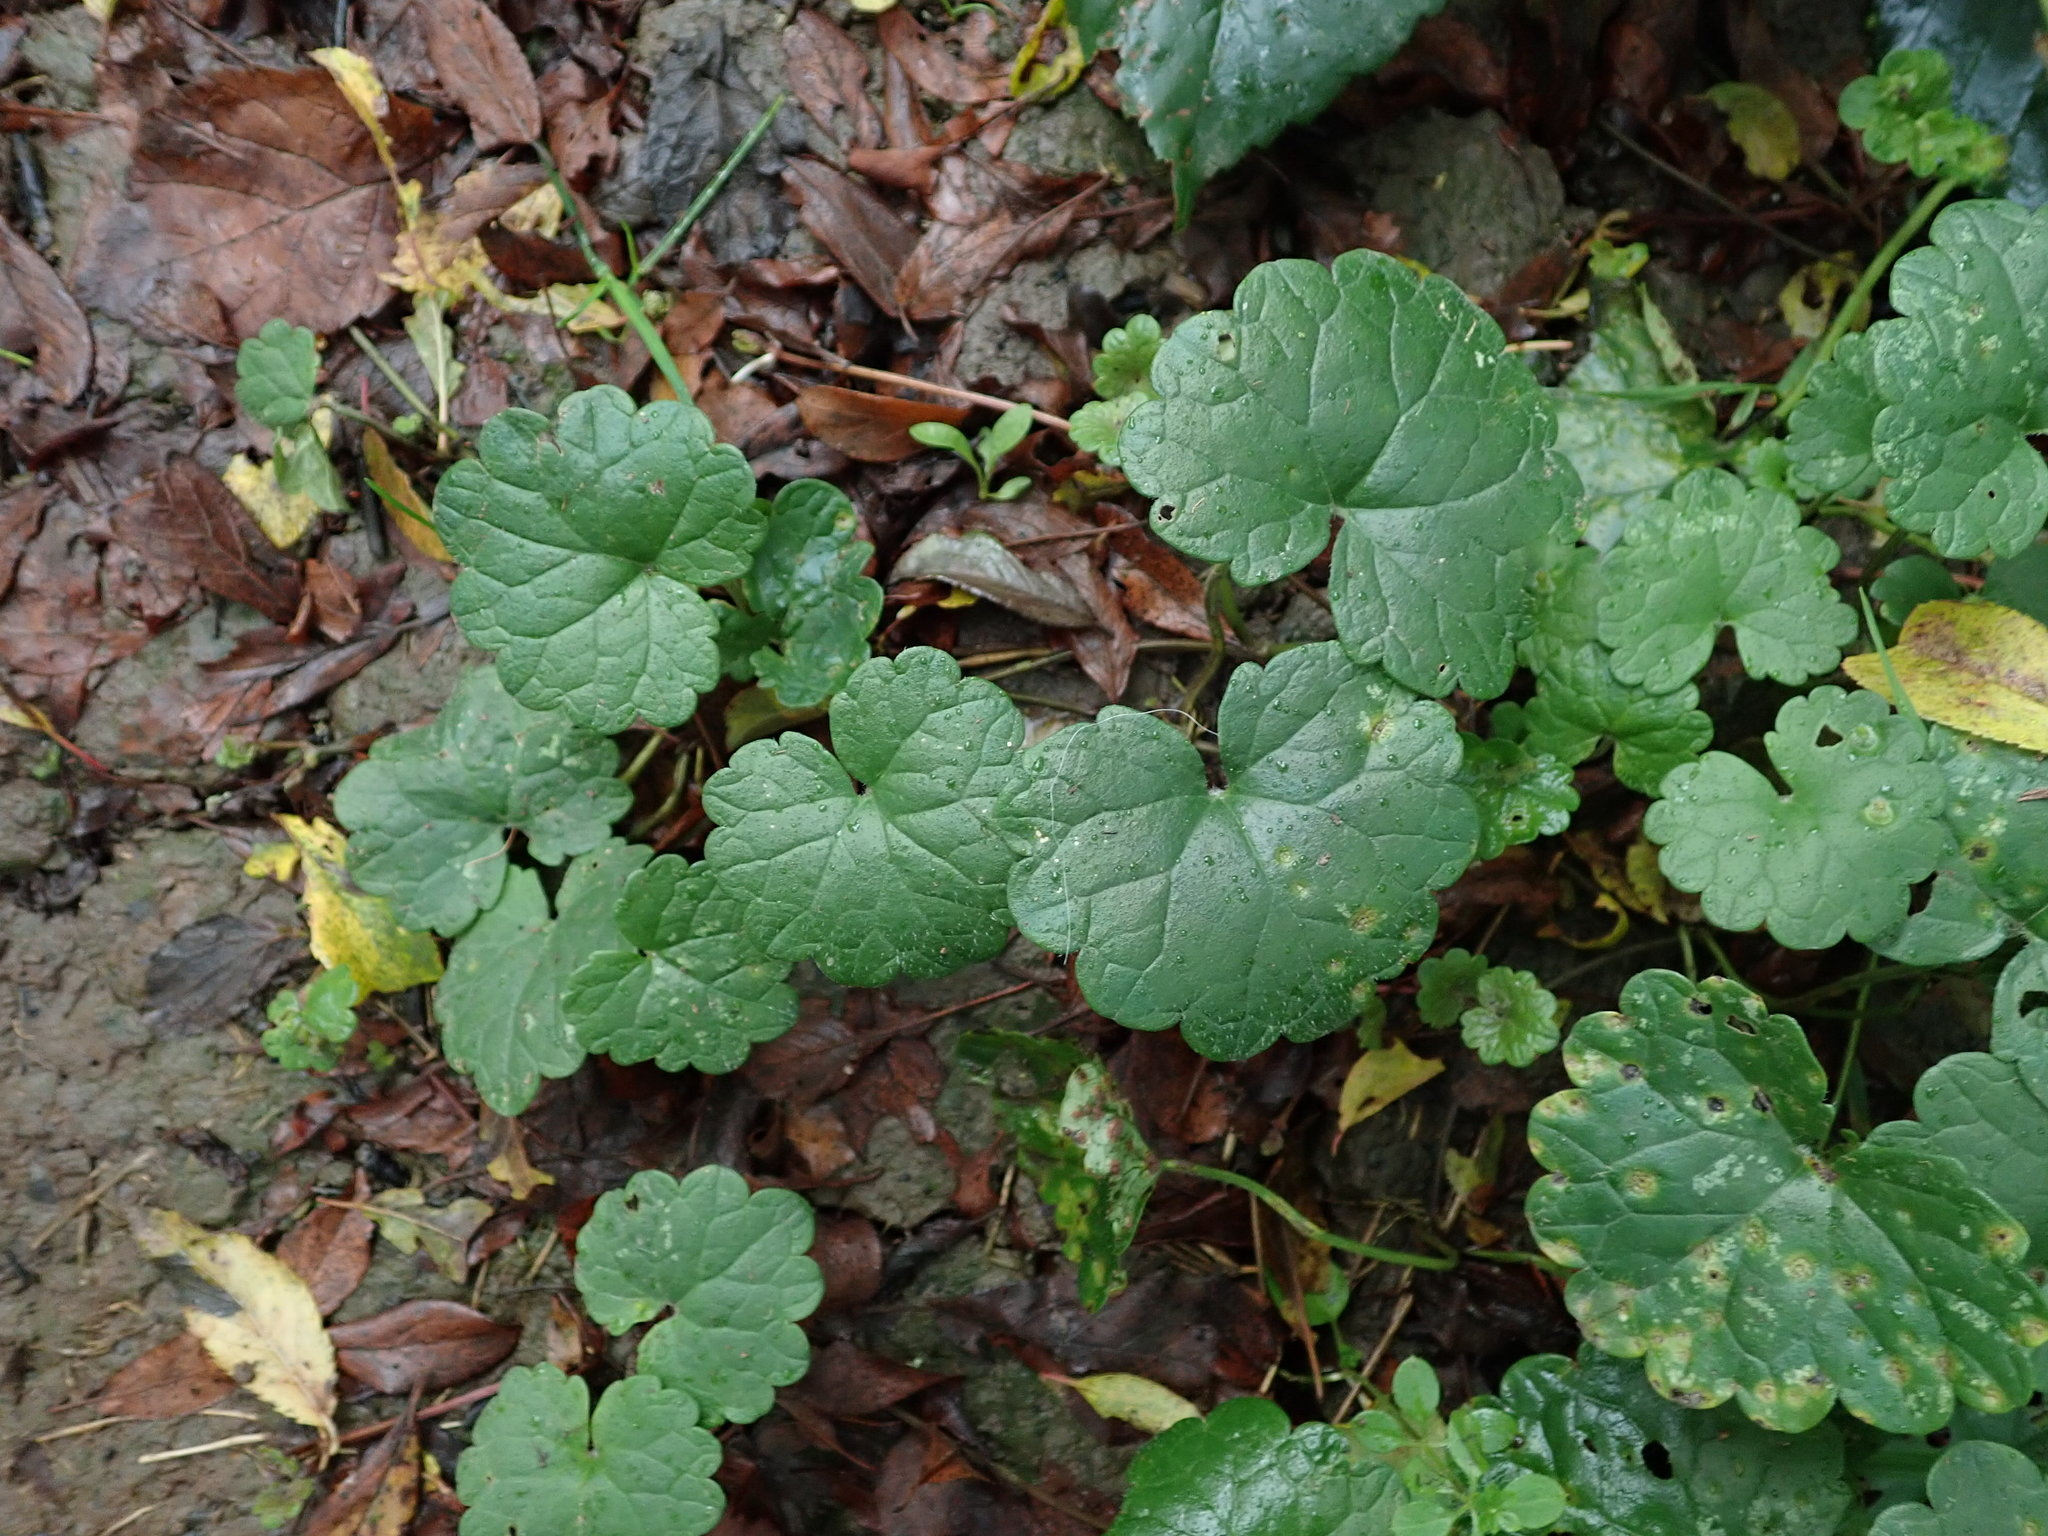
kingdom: Plantae
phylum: Tracheophyta
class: Magnoliopsida
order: Lamiales
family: Lamiaceae
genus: Glechoma
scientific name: Glechoma hederacea
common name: Ground ivy
